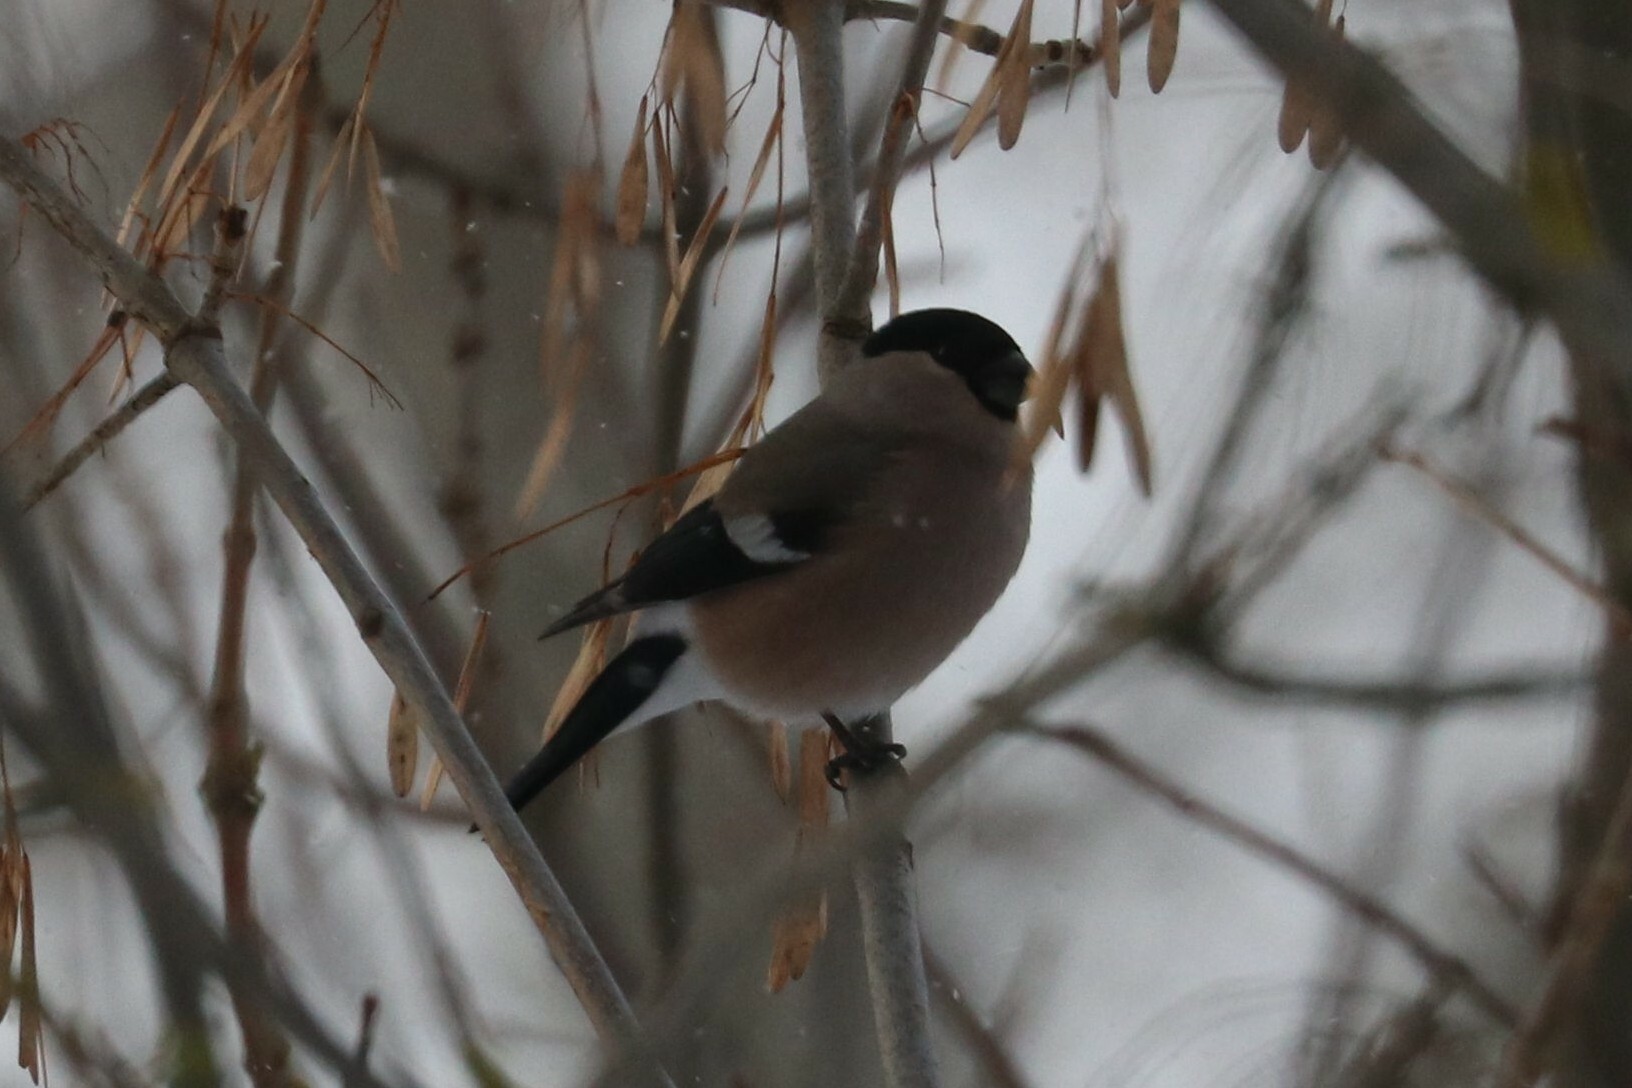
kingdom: Animalia
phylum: Chordata
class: Aves
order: Passeriformes
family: Fringillidae
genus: Pyrrhula
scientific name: Pyrrhula pyrrhula
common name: Eurasian bullfinch
